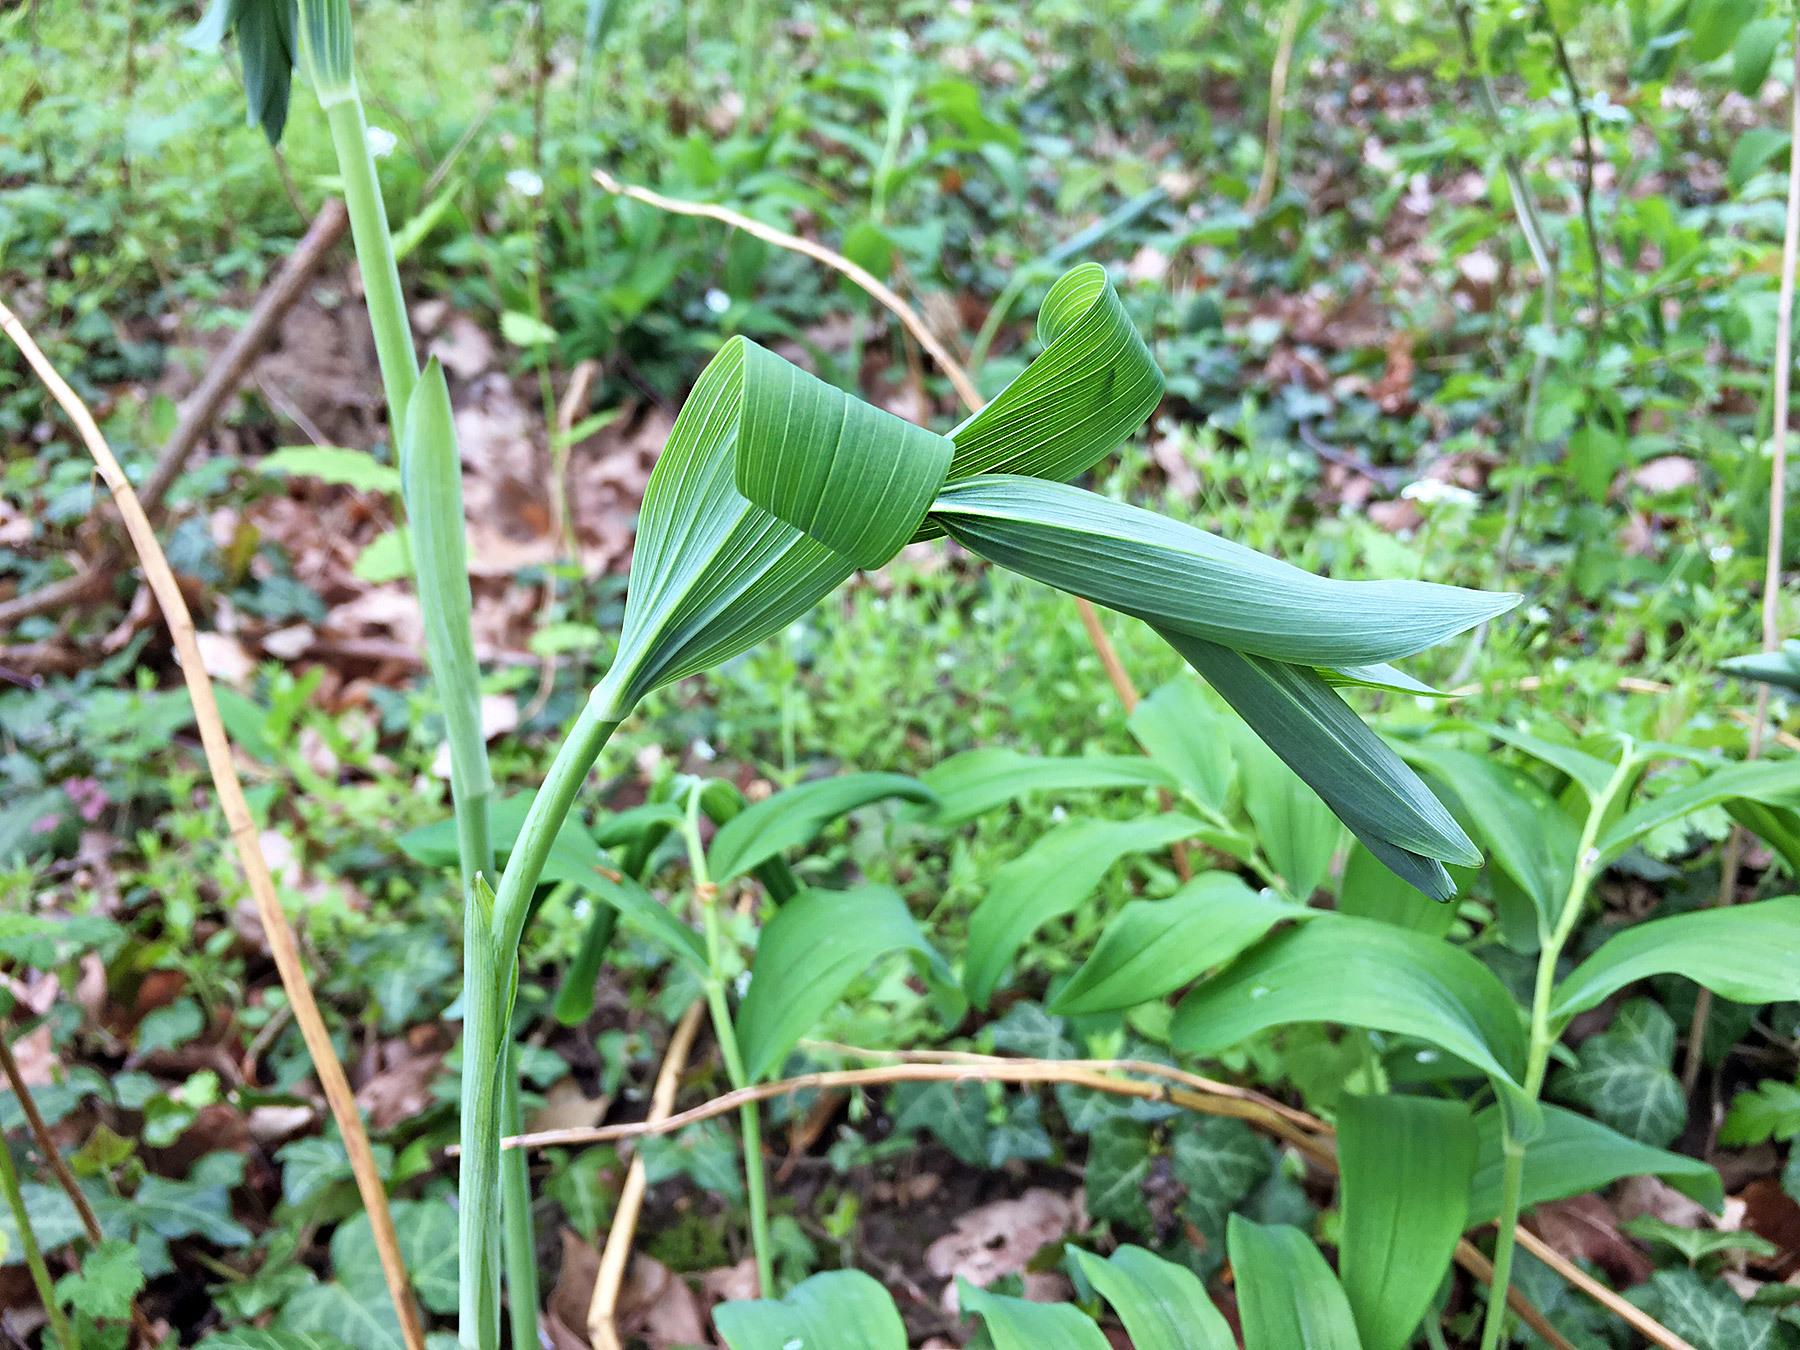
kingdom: Plantae
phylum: Tracheophyta
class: Liliopsida
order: Asparagales
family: Asparagaceae
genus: Polygonatum
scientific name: Polygonatum multiflorum
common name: Solomon's-seal
